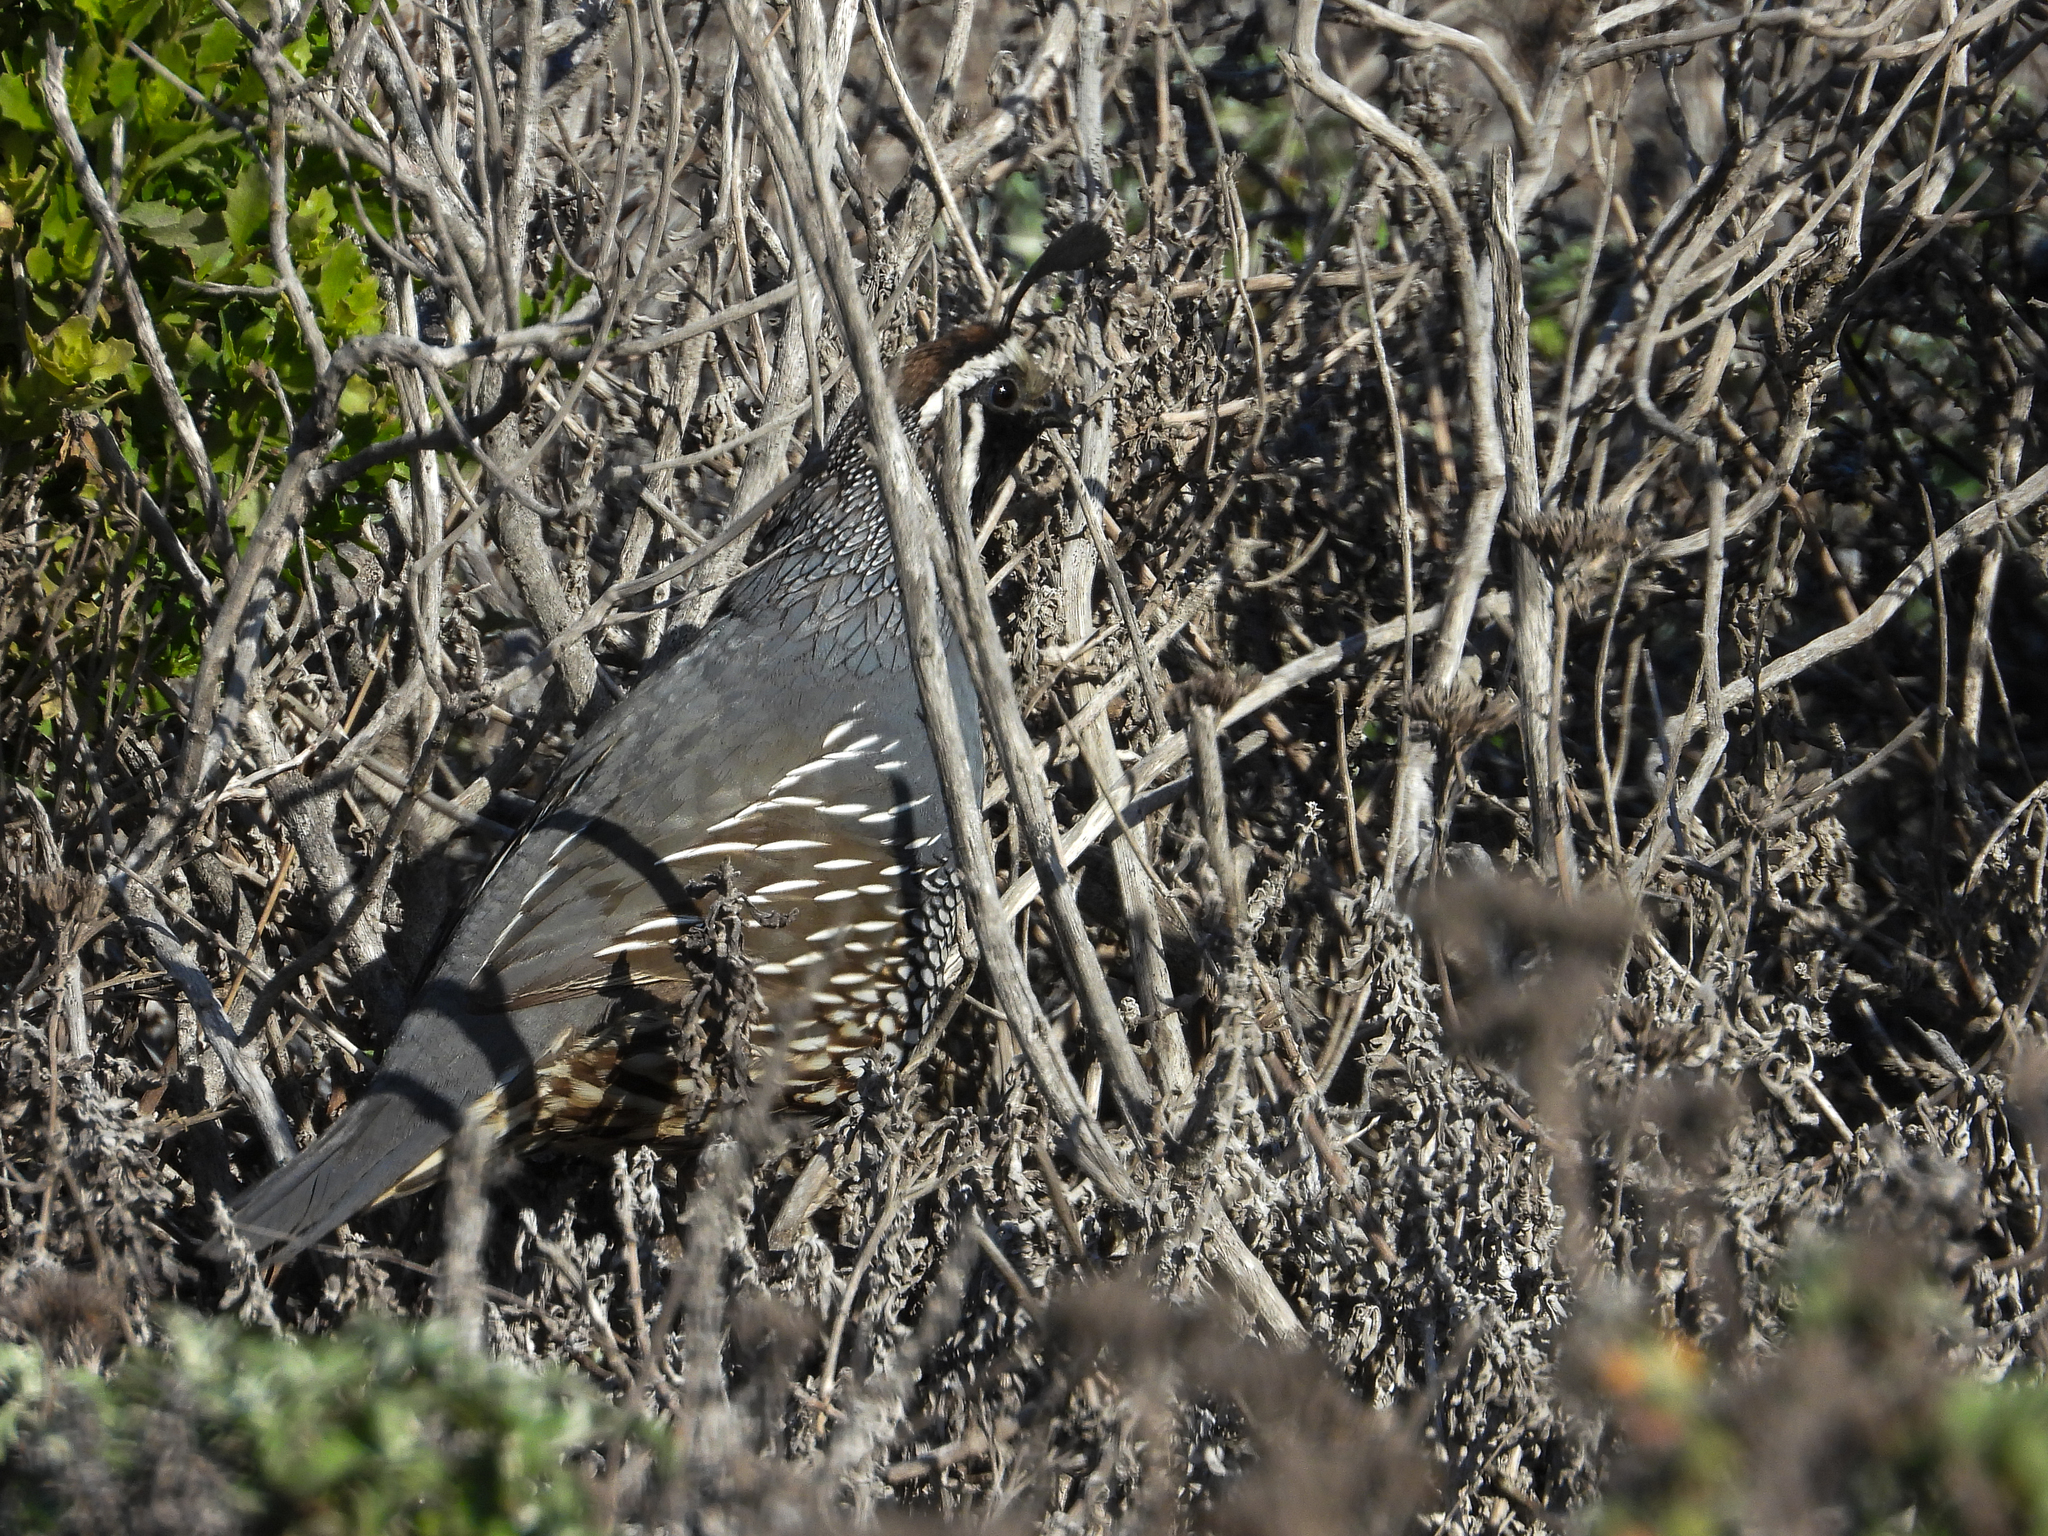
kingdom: Animalia
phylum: Chordata
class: Aves
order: Galliformes
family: Odontophoridae
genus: Callipepla
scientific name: Callipepla californica
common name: California quail
